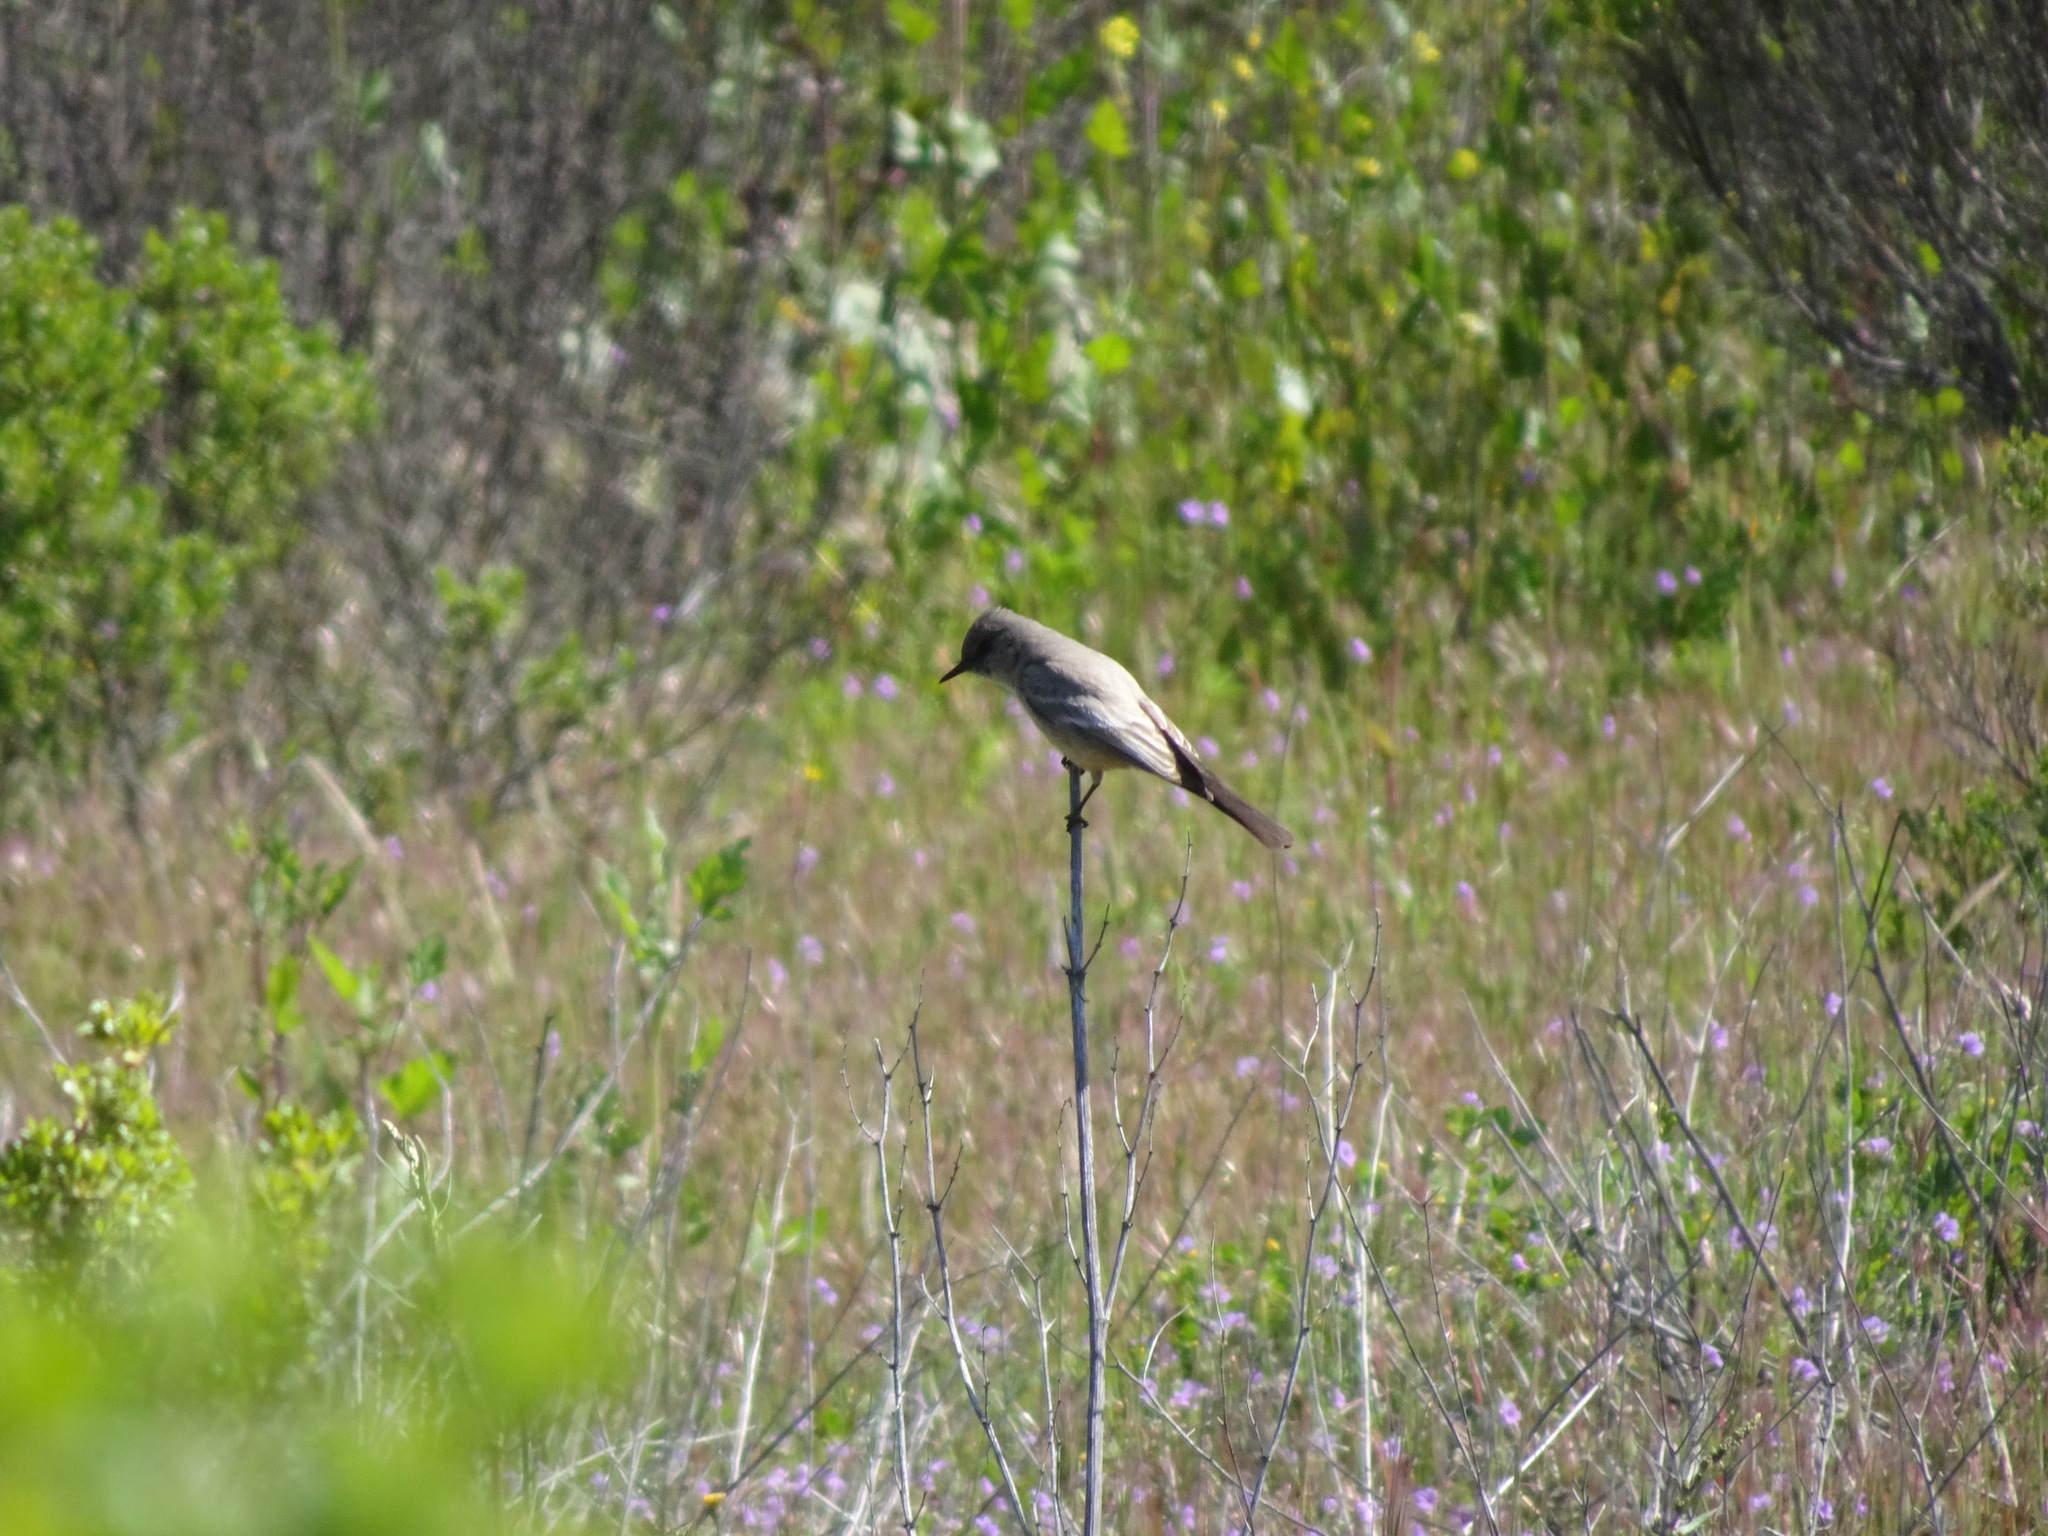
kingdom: Animalia
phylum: Chordata
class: Aves
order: Passeriformes
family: Tyrannidae
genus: Sayornis
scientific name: Sayornis saya
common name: Say's phoebe
